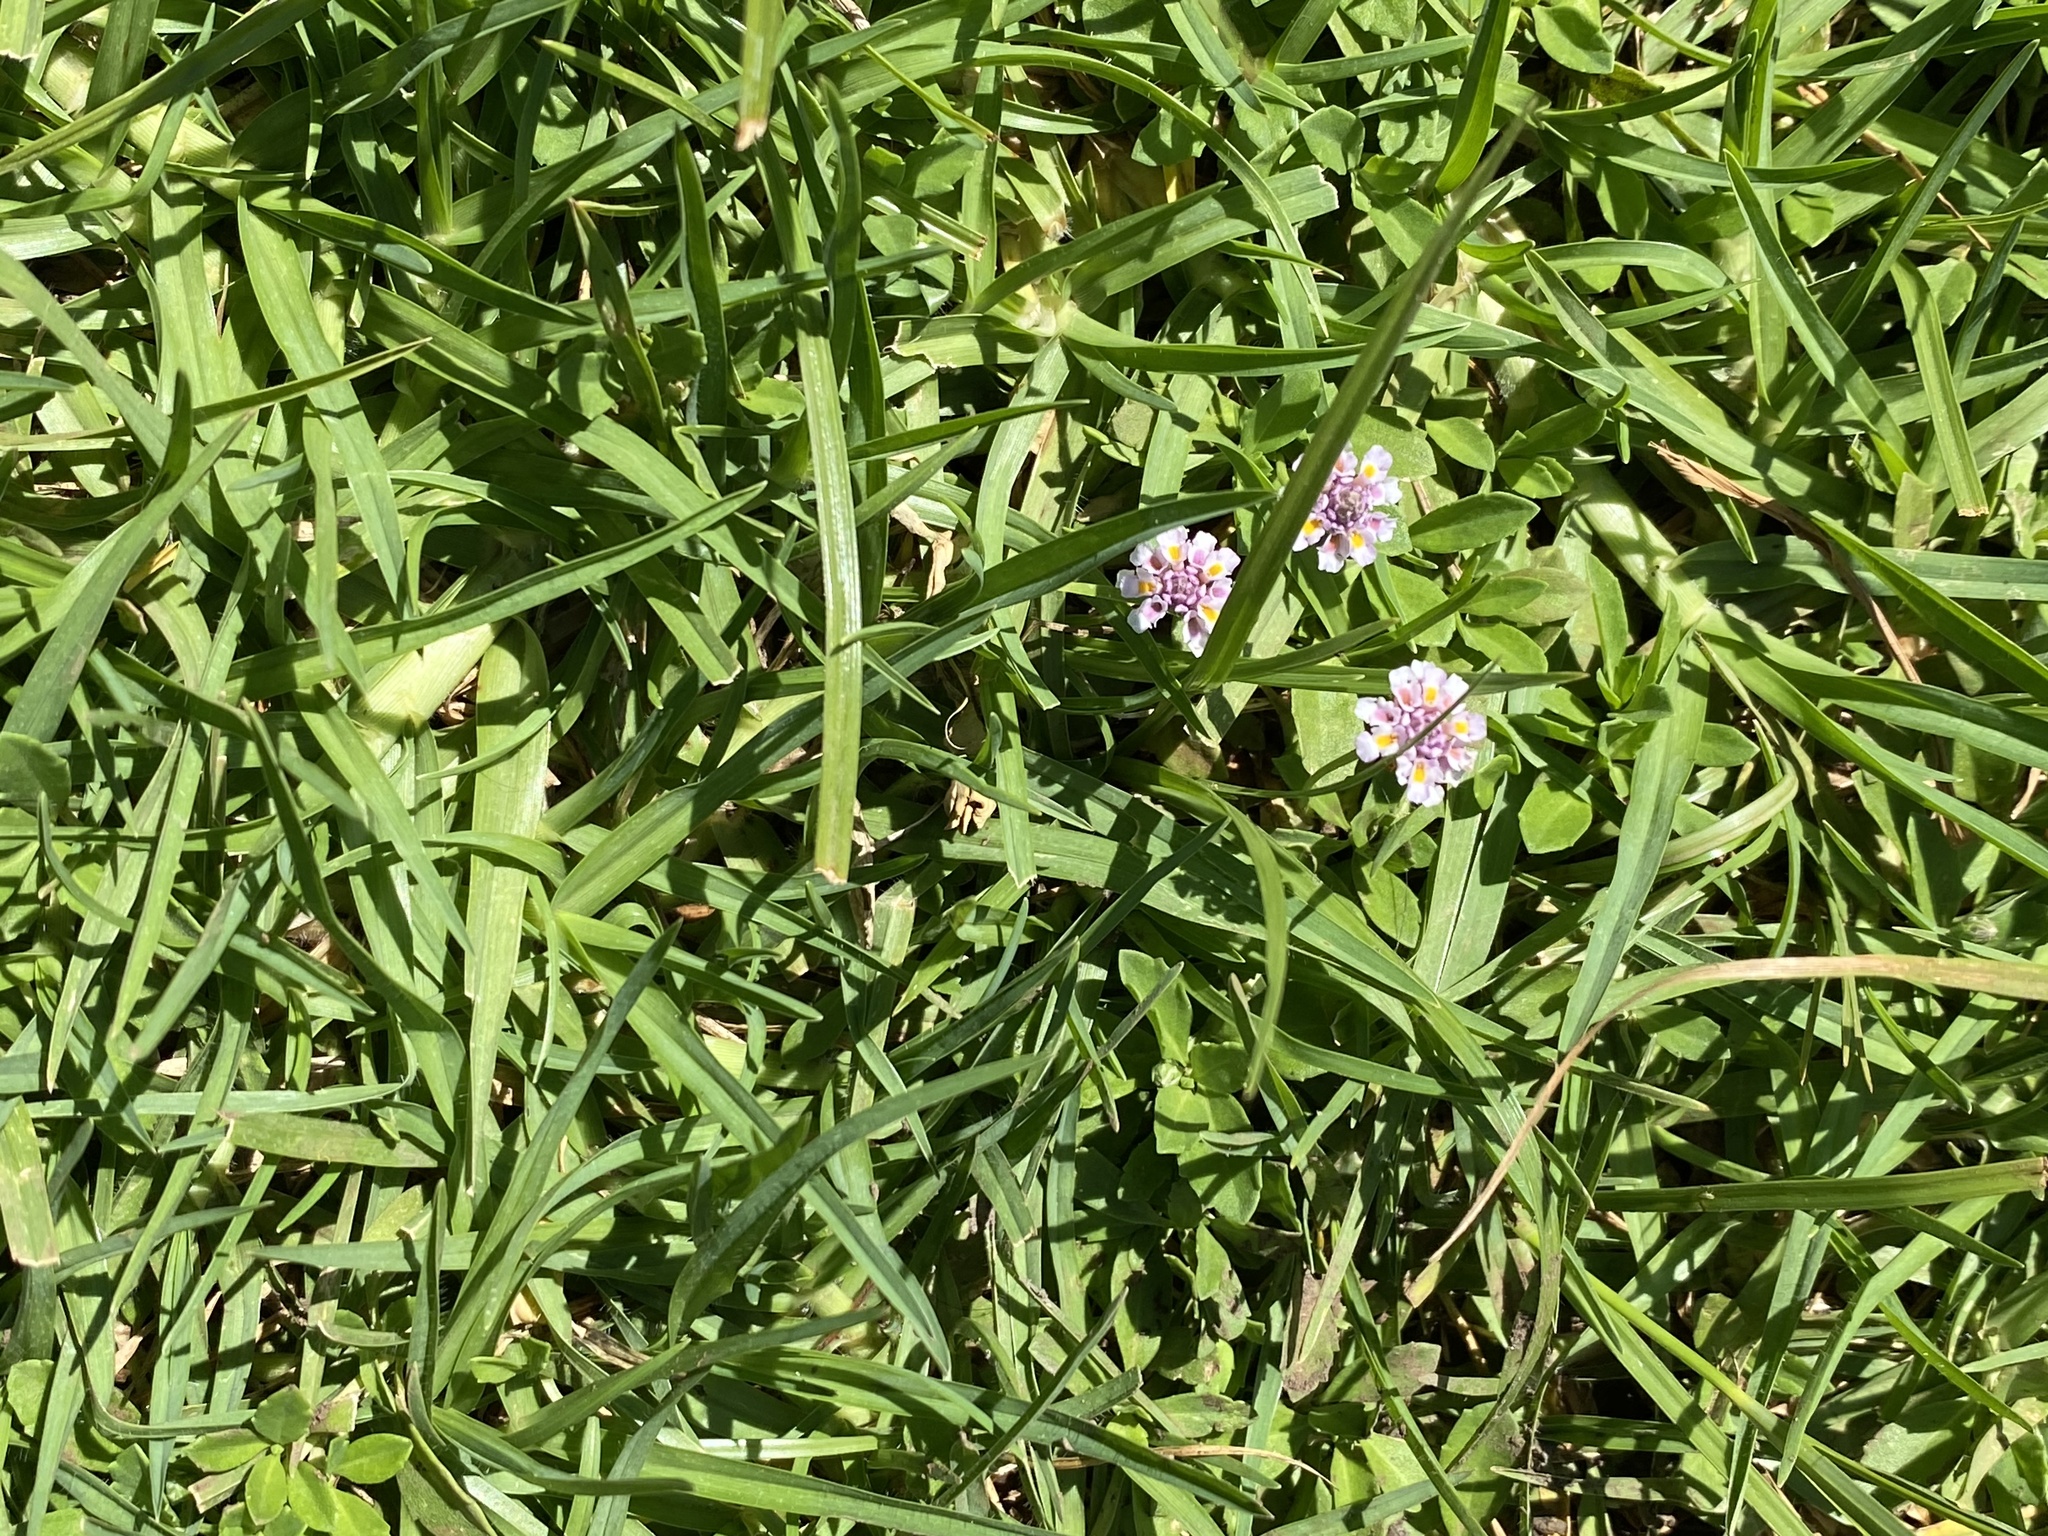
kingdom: Plantae
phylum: Tracheophyta
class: Magnoliopsida
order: Lamiales
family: Verbenaceae
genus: Phyla
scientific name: Phyla nodiflora
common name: Frogfruit
